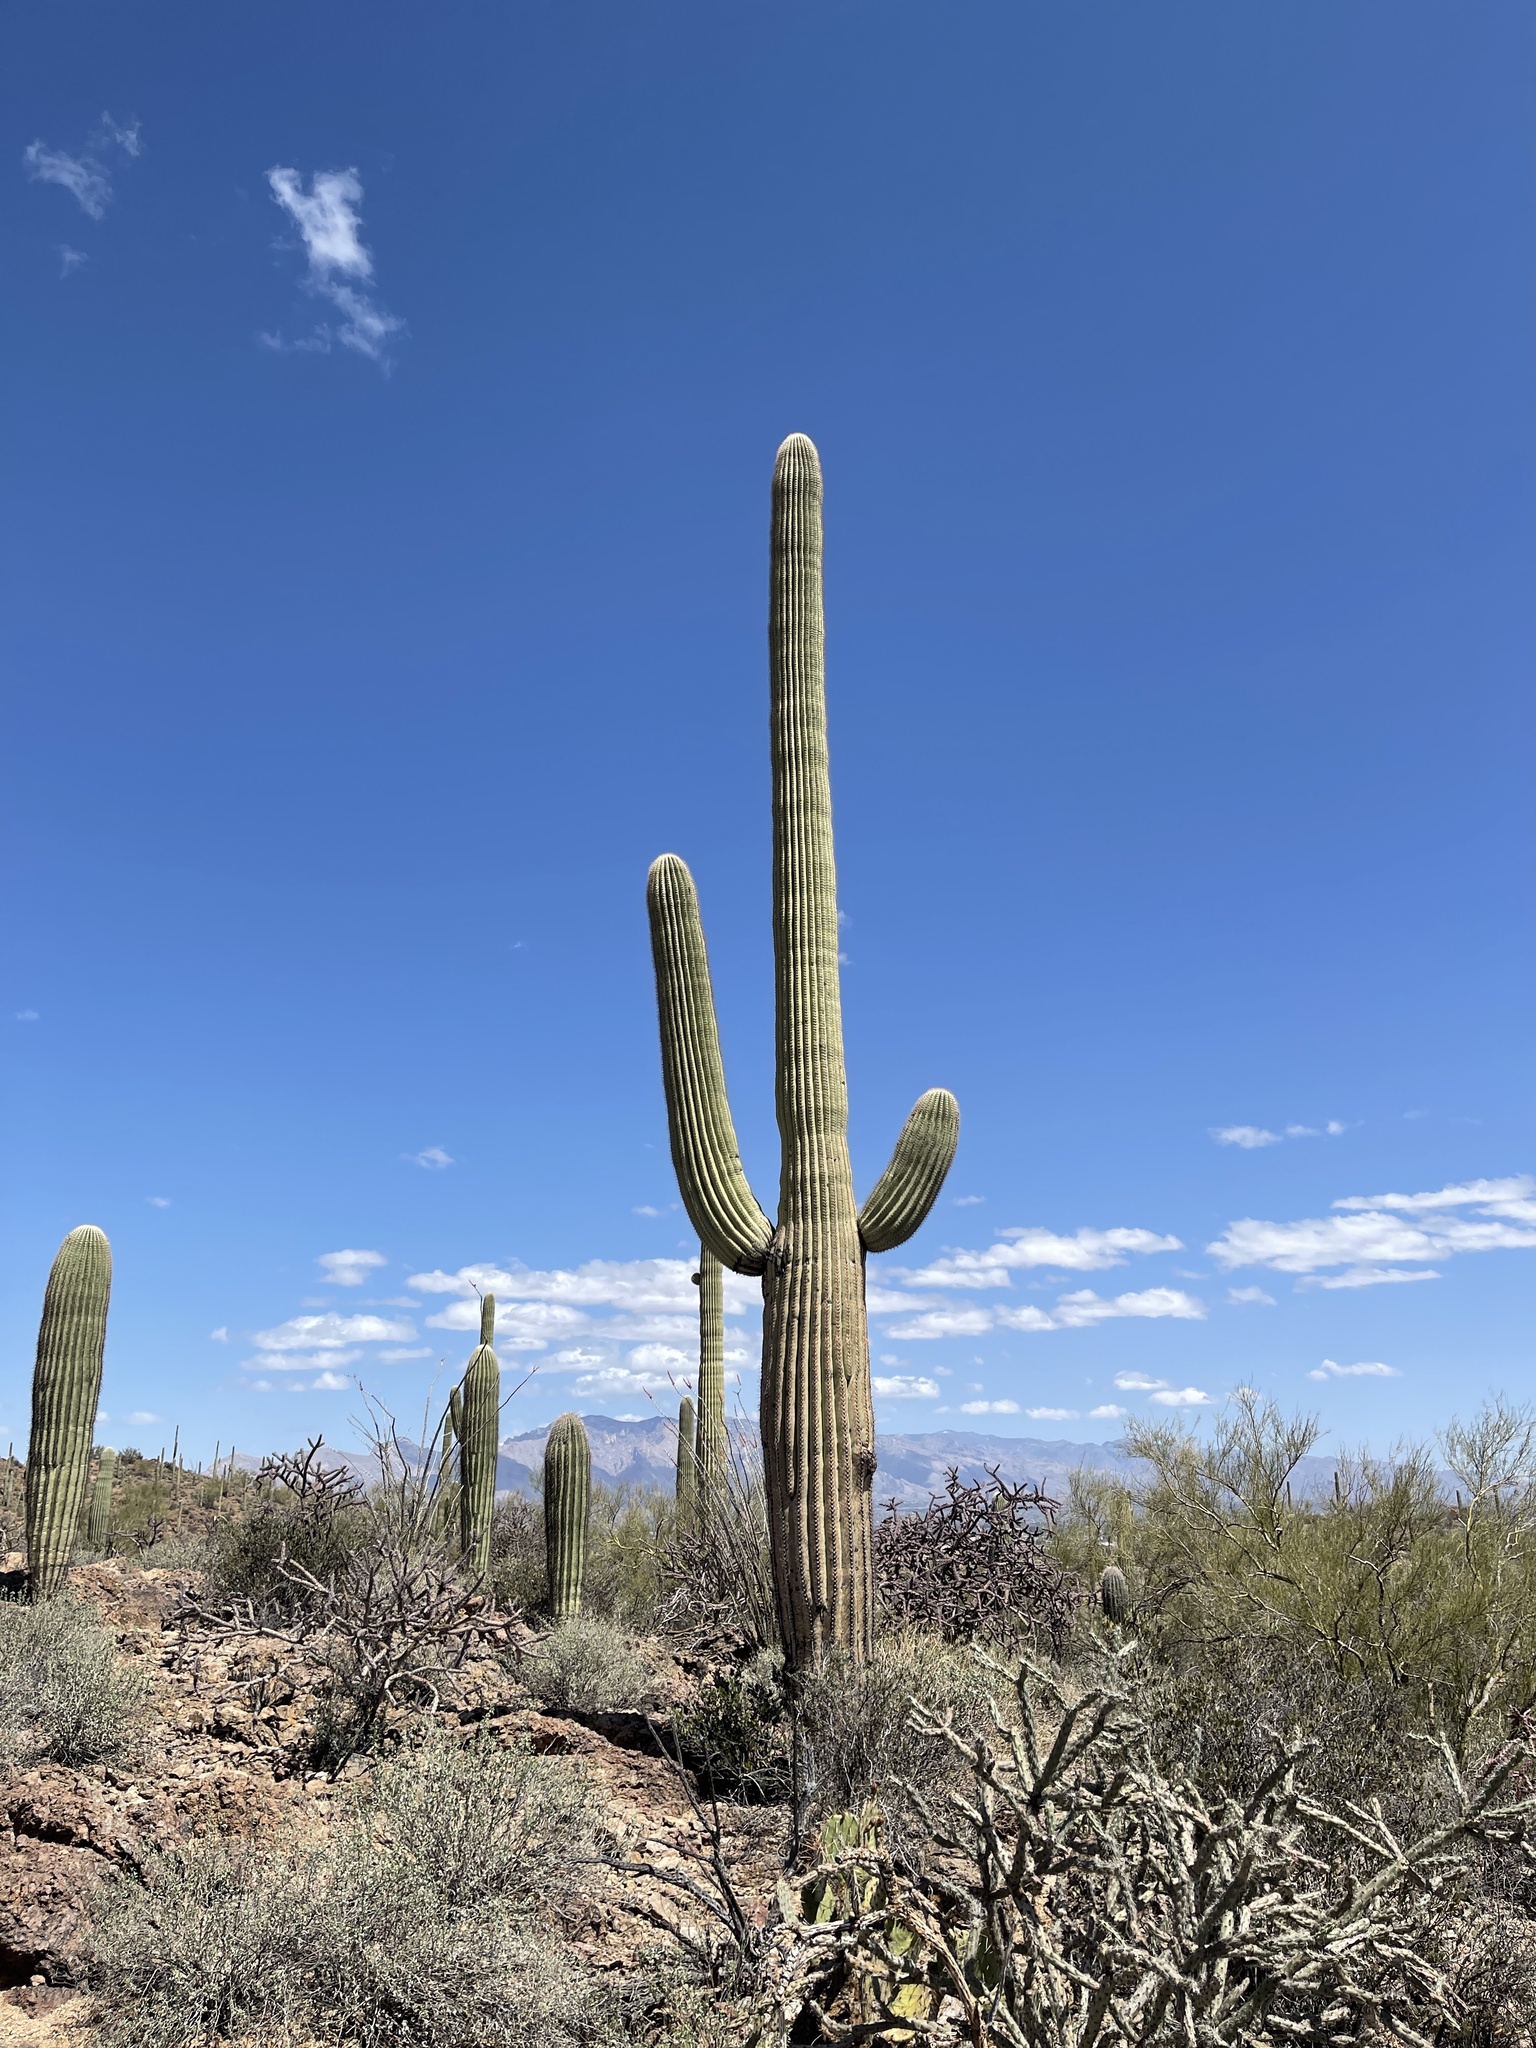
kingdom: Plantae
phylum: Tracheophyta
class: Magnoliopsida
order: Caryophyllales
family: Cactaceae
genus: Carnegiea
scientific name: Carnegiea gigantea
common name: Saguaro
